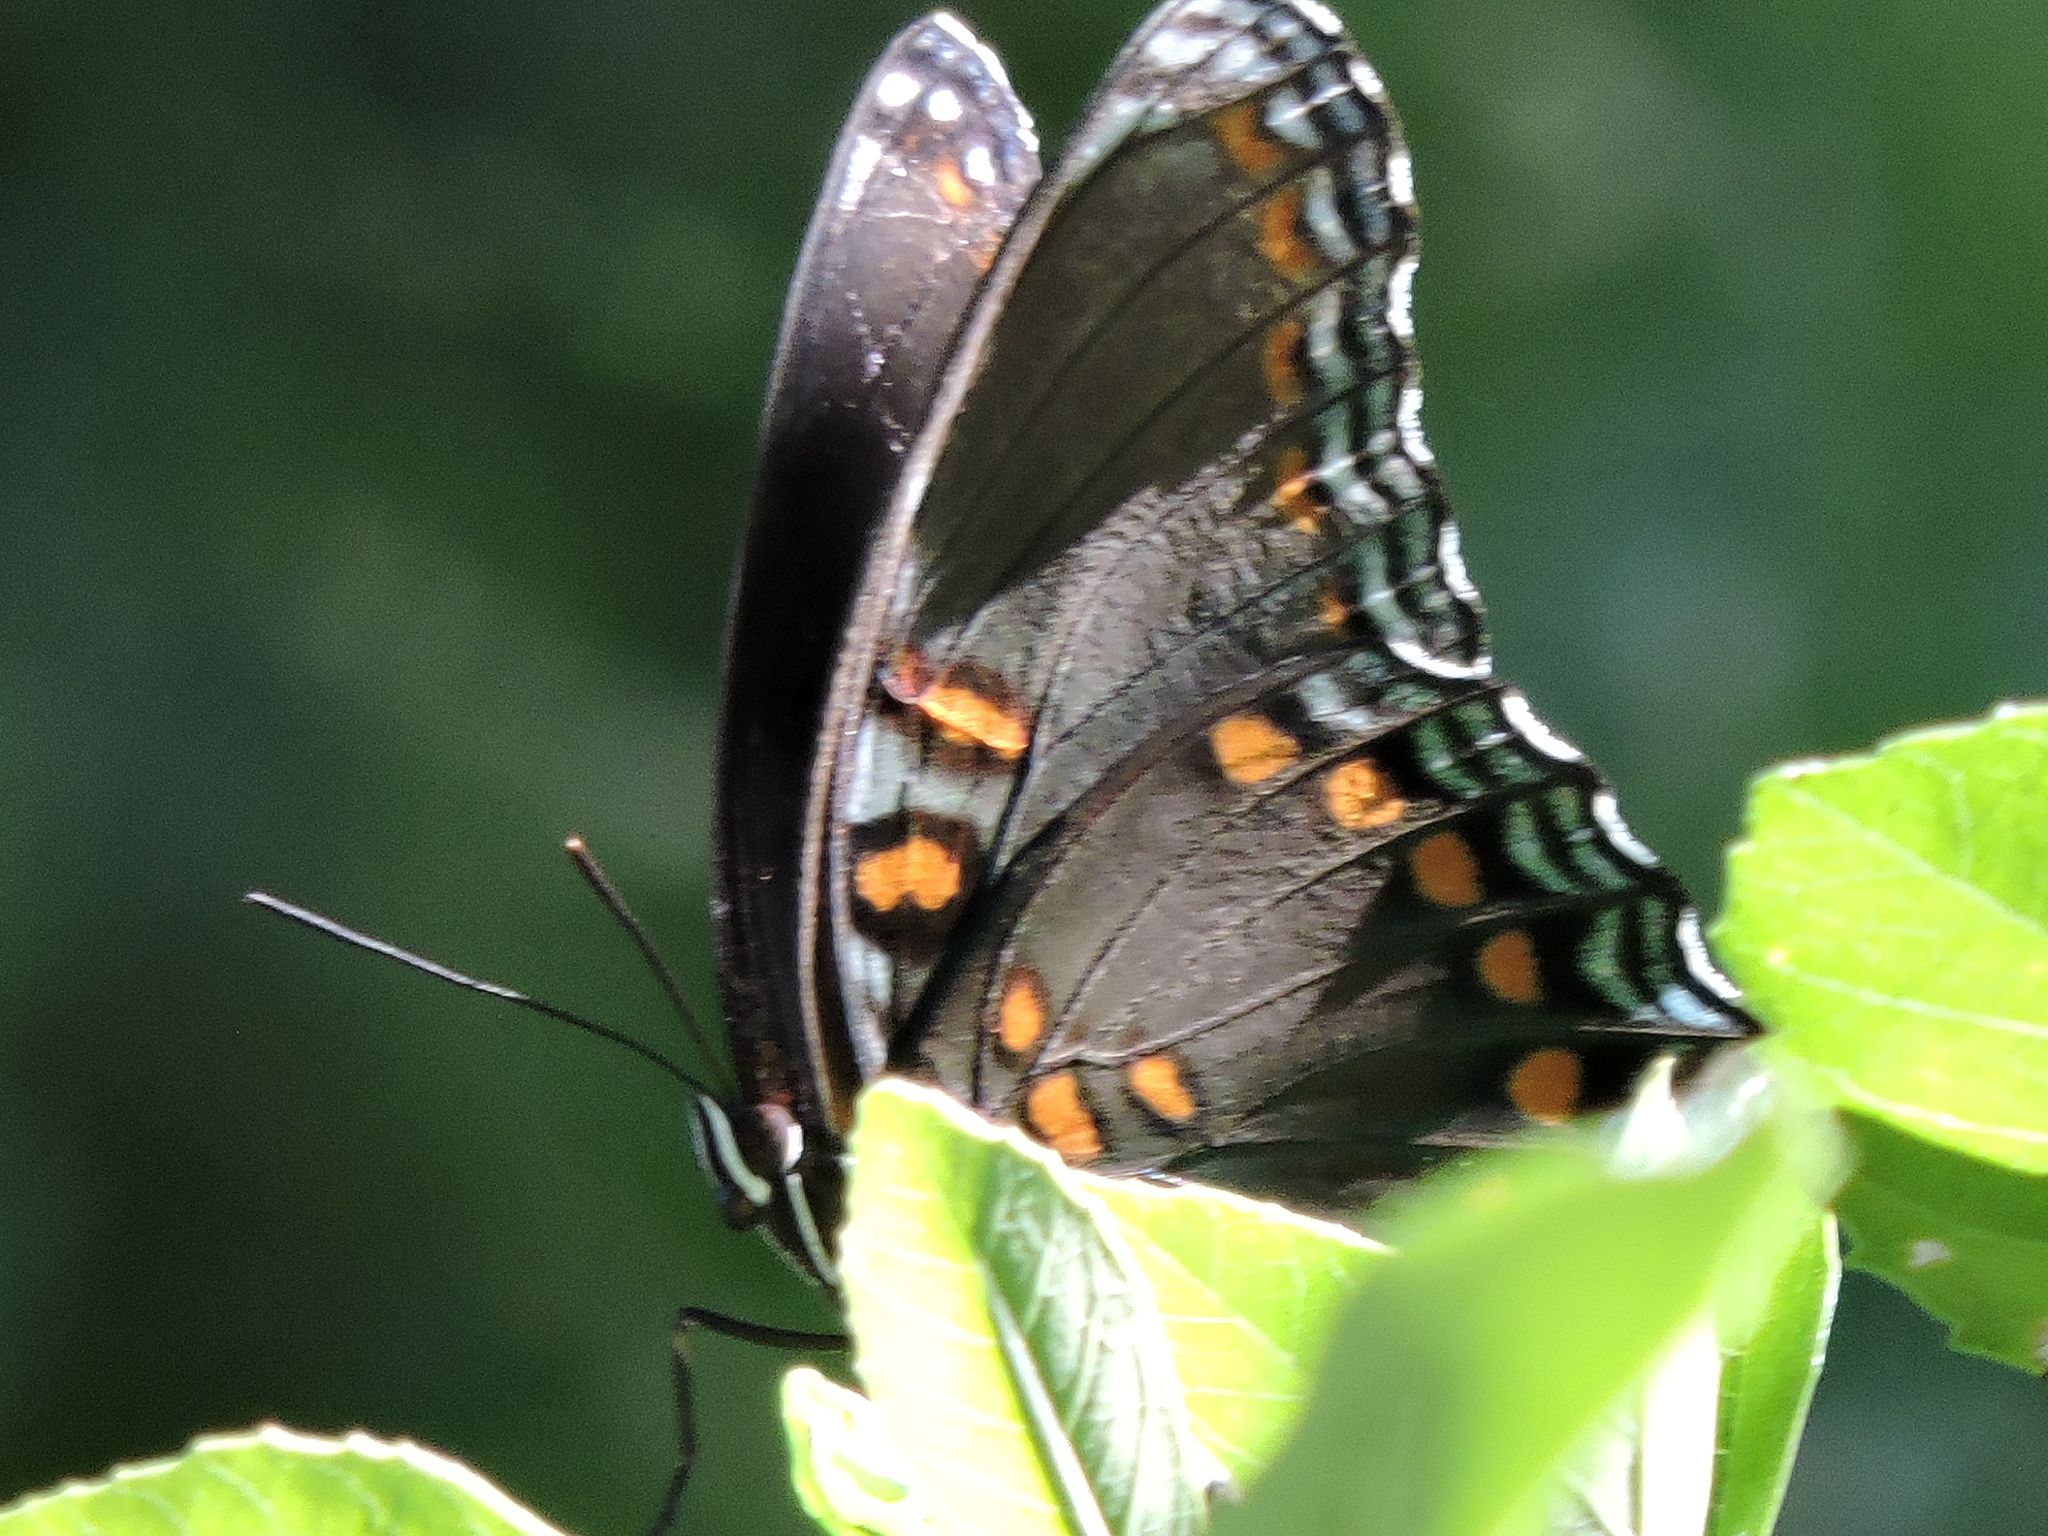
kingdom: Animalia
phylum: Arthropoda
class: Insecta
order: Lepidoptera
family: Nymphalidae
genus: Limenitis
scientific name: Limenitis arthemis
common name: Red-spotted admiral
